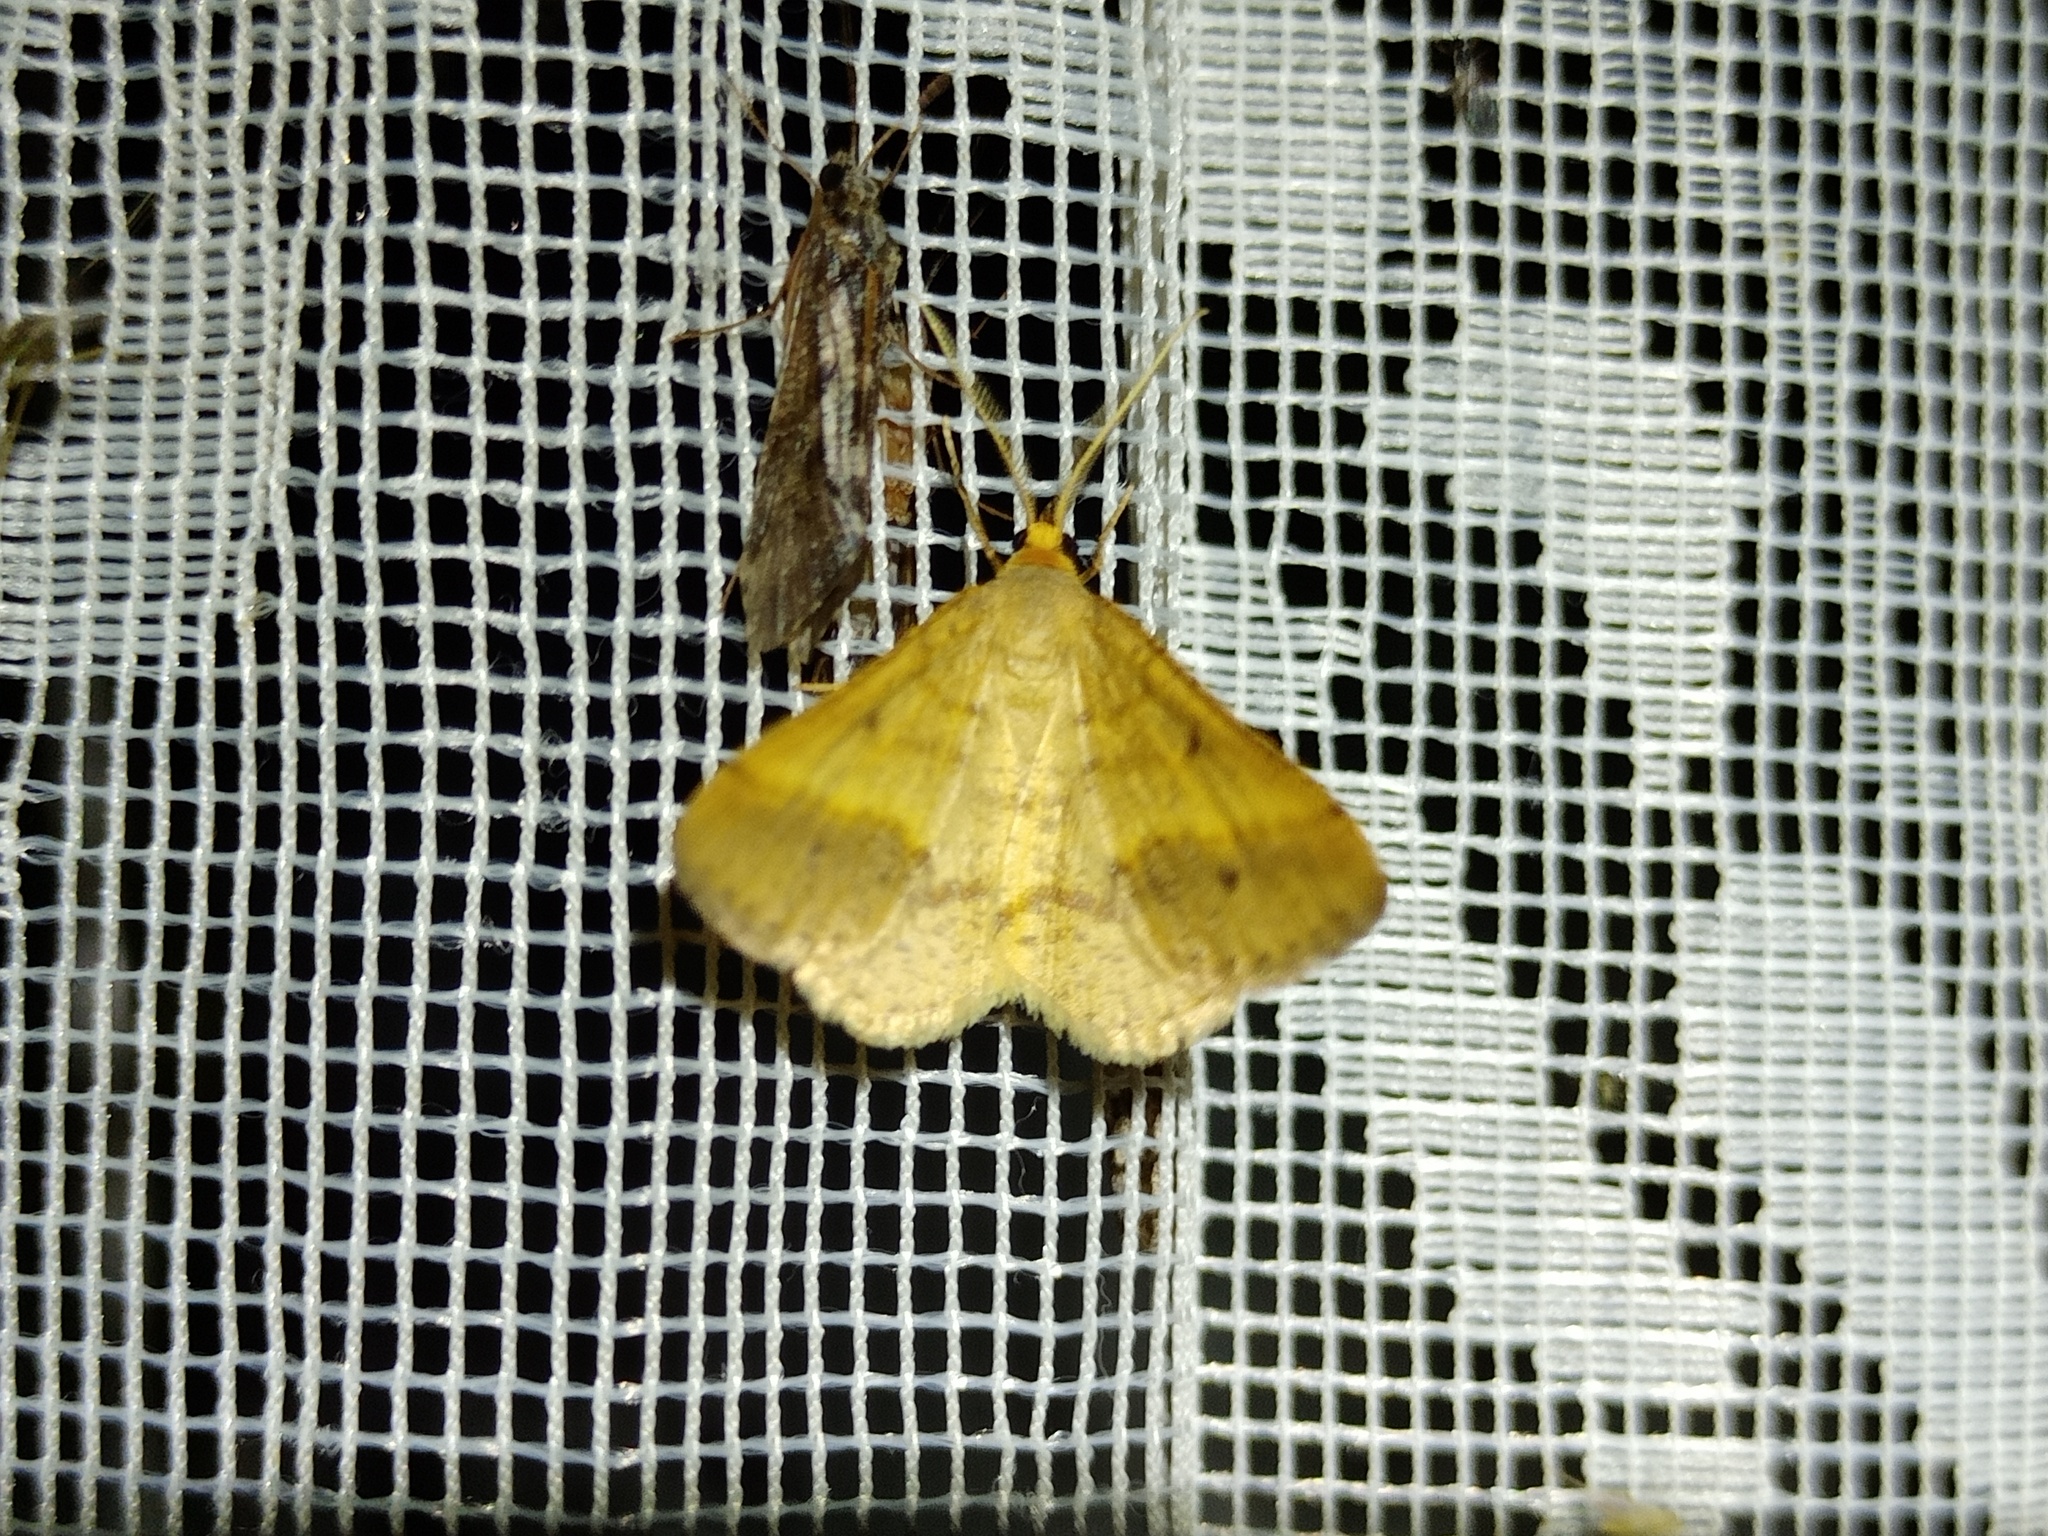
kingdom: Animalia
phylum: Arthropoda
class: Insecta
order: Lepidoptera
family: Geometridae
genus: Tephrina
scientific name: Tephrina arenacearia
